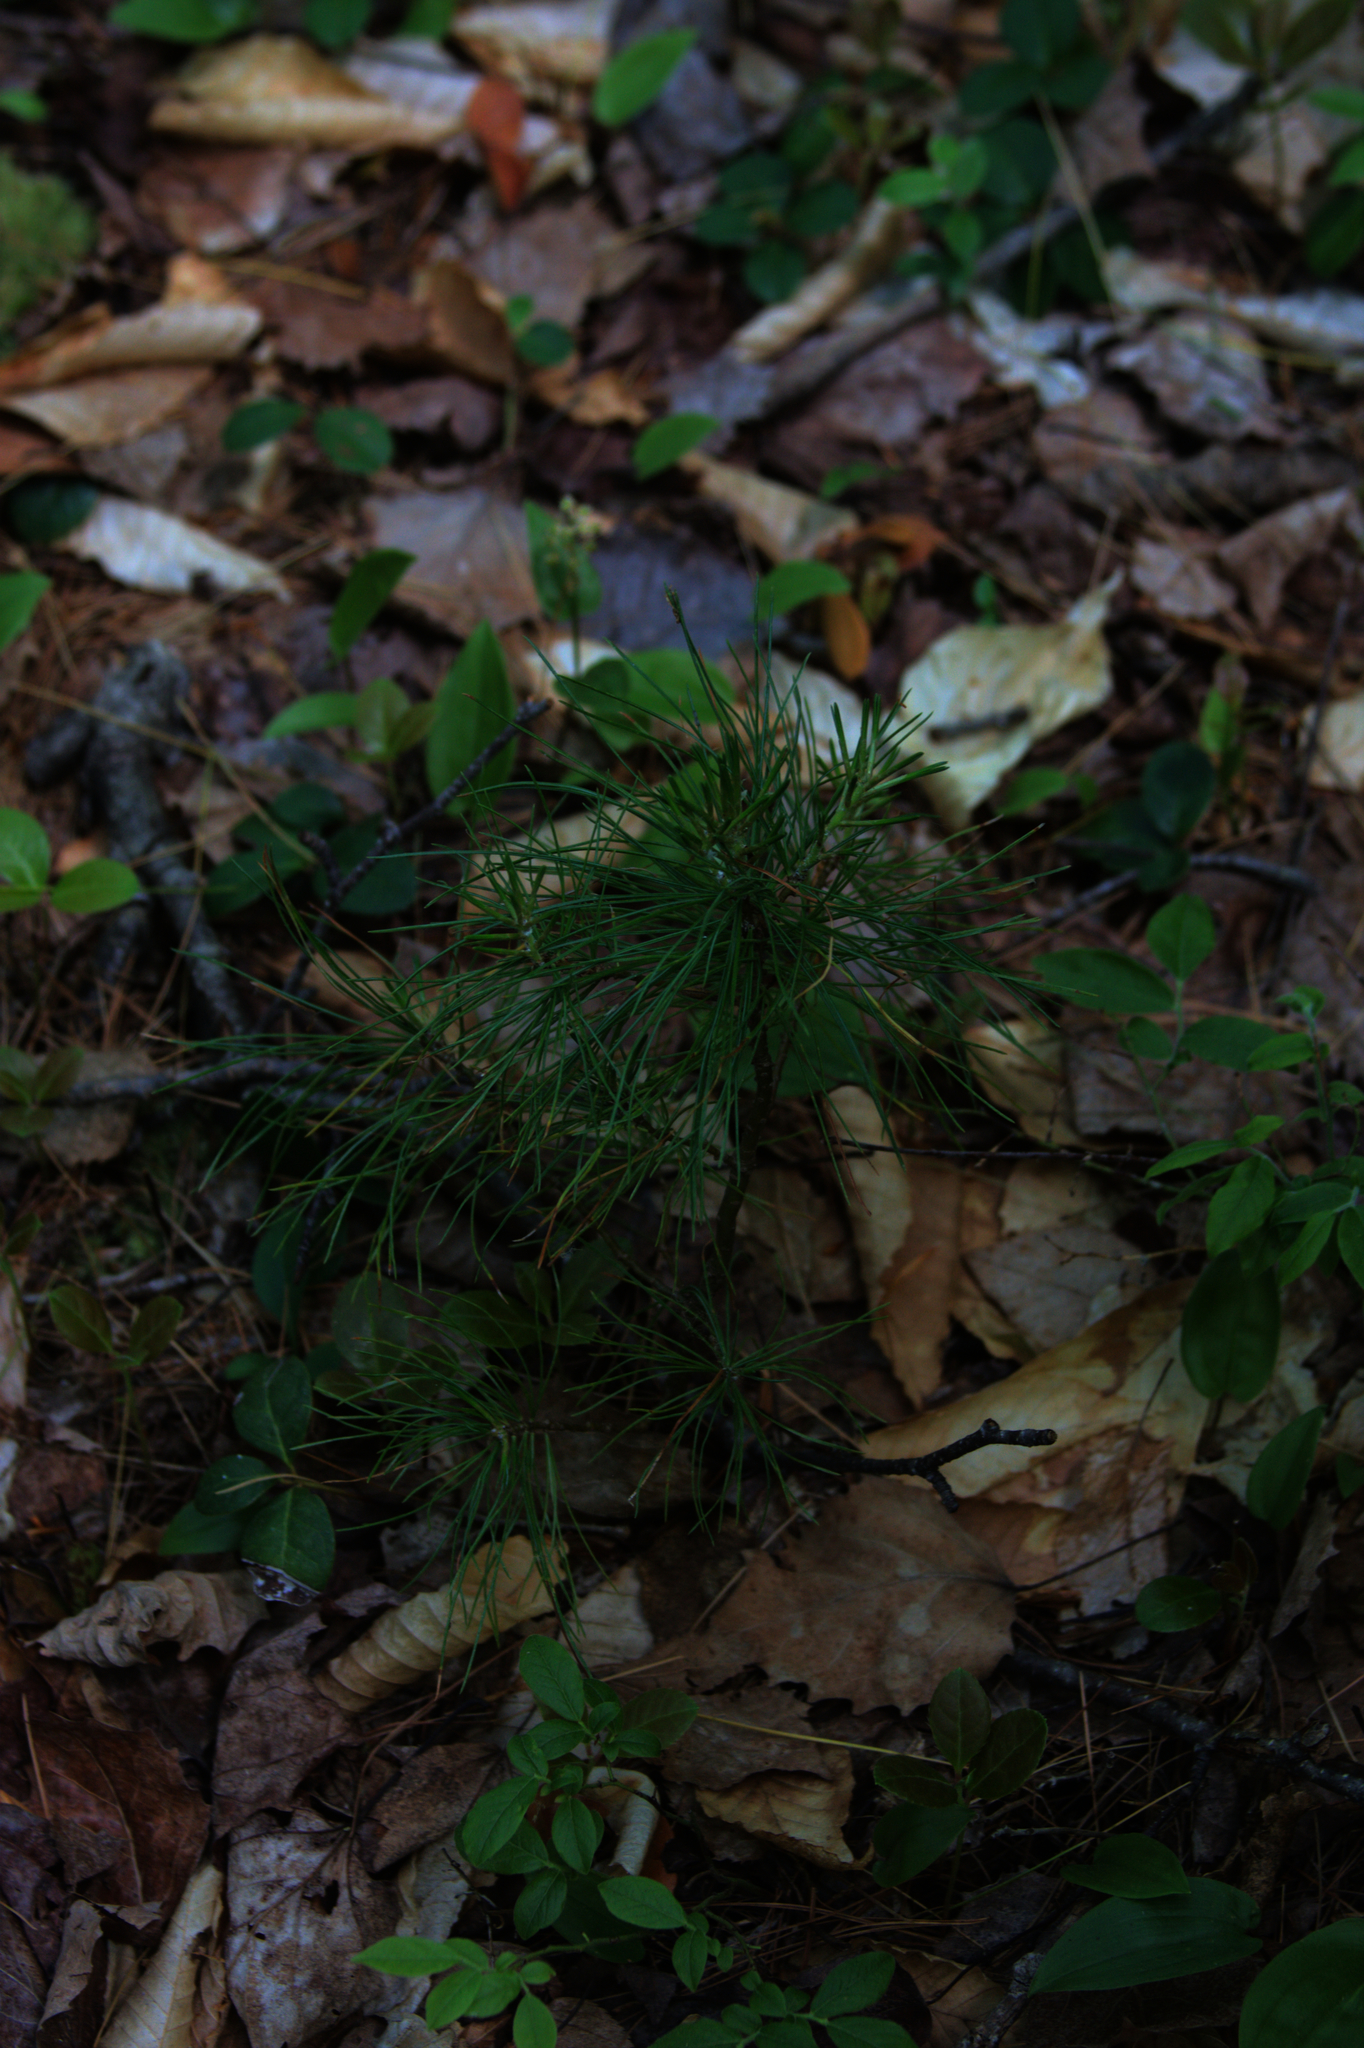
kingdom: Plantae
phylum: Tracheophyta
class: Pinopsida
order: Pinales
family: Pinaceae
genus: Pinus
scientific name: Pinus strobus
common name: Weymouth pine
